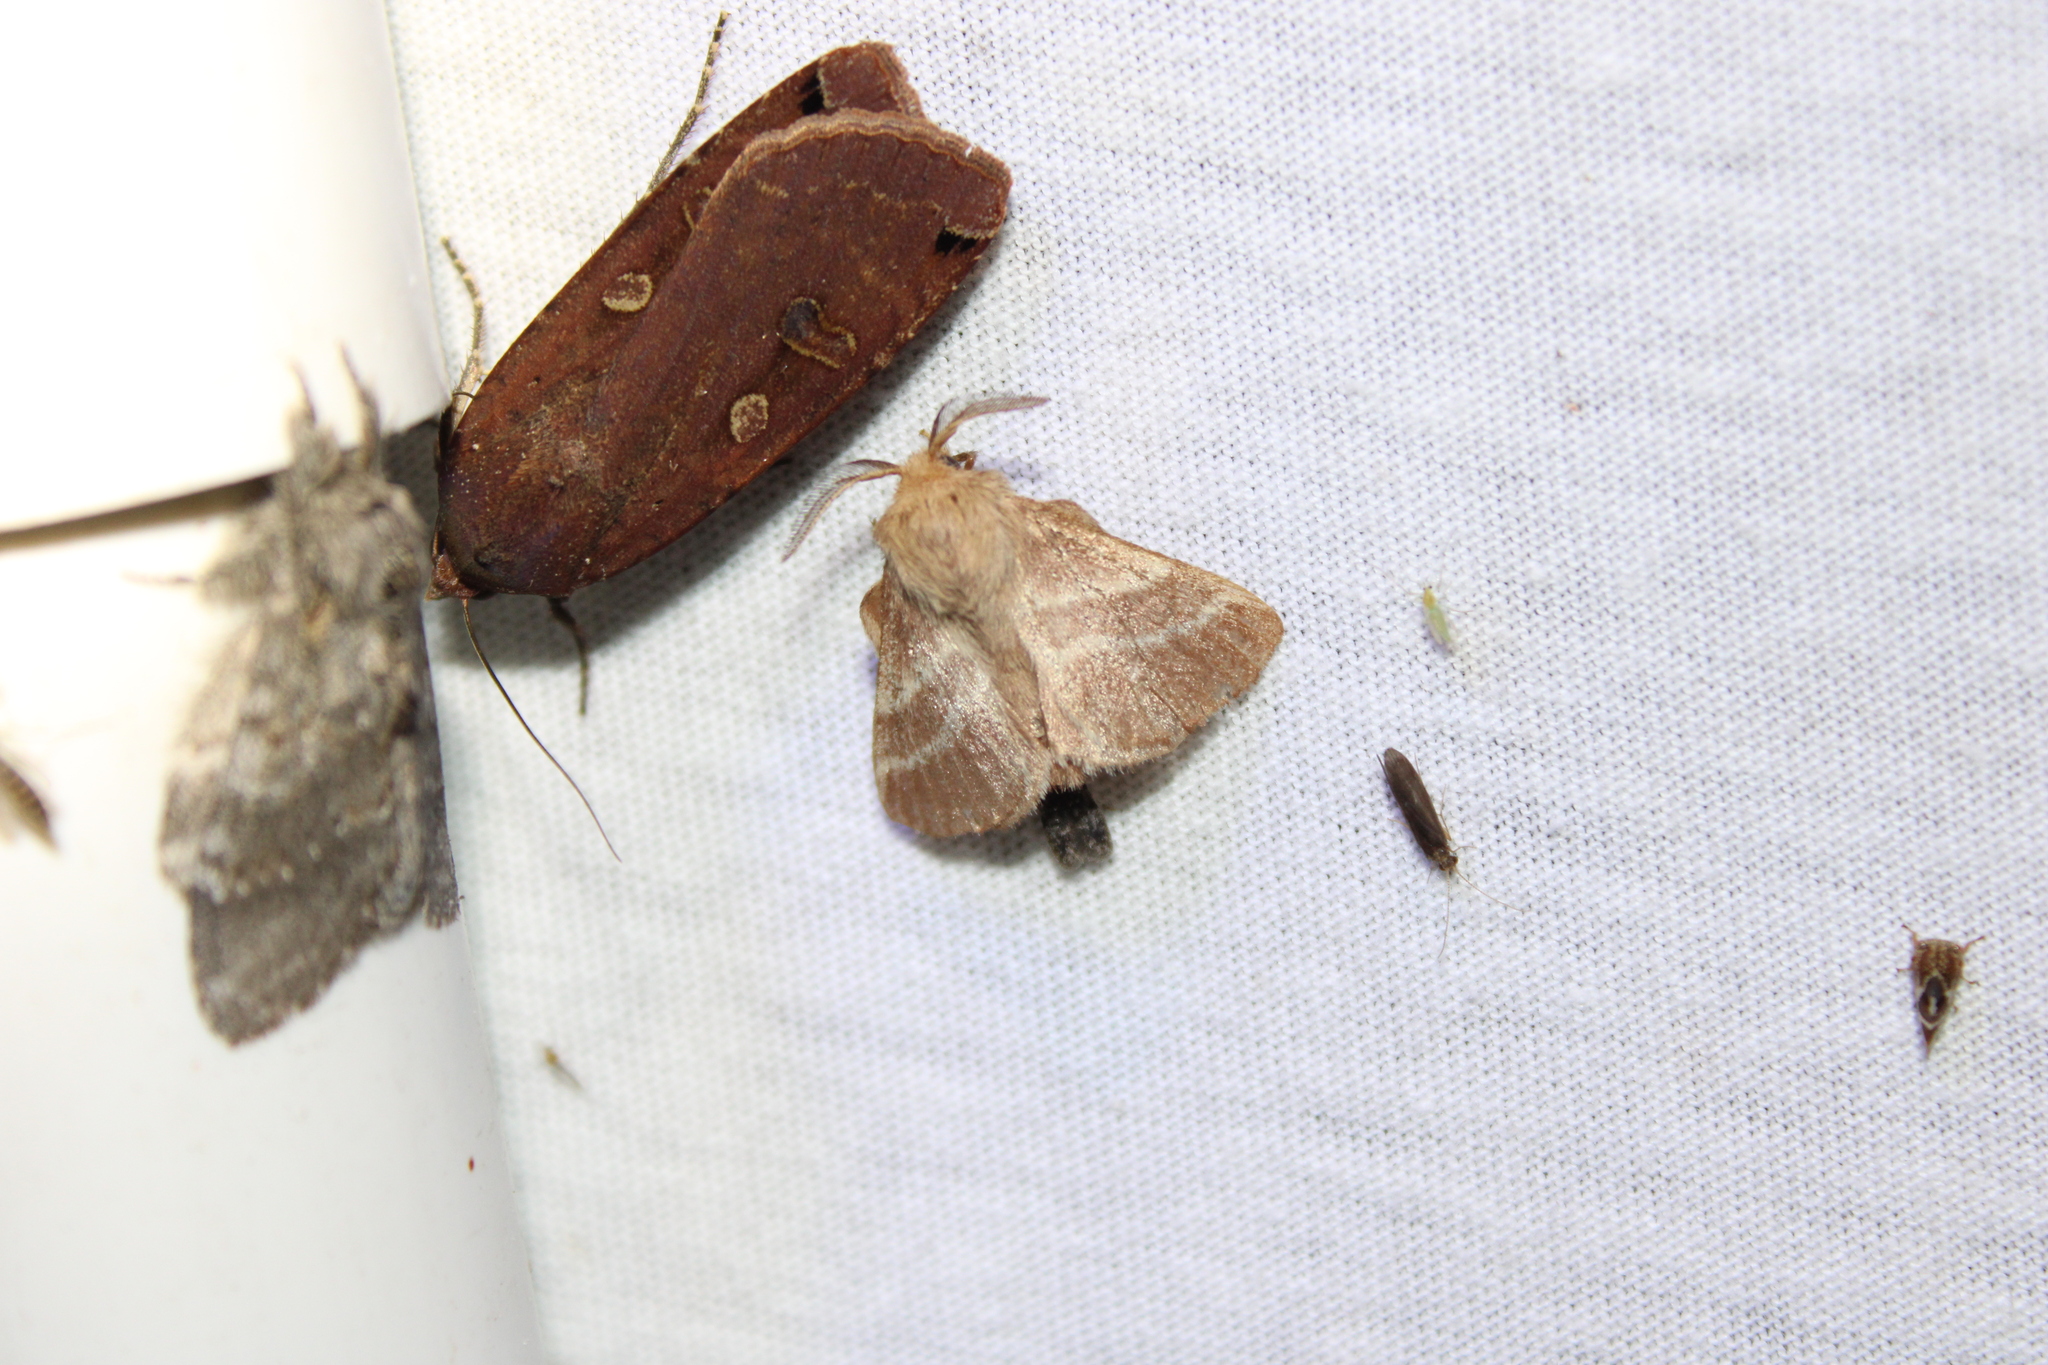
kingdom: Animalia
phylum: Arthropoda
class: Insecta
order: Lepidoptera
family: Lasiocampidae
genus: Malacosoma
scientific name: Malacosoma americana
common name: Eastern tent caterpillar moth
